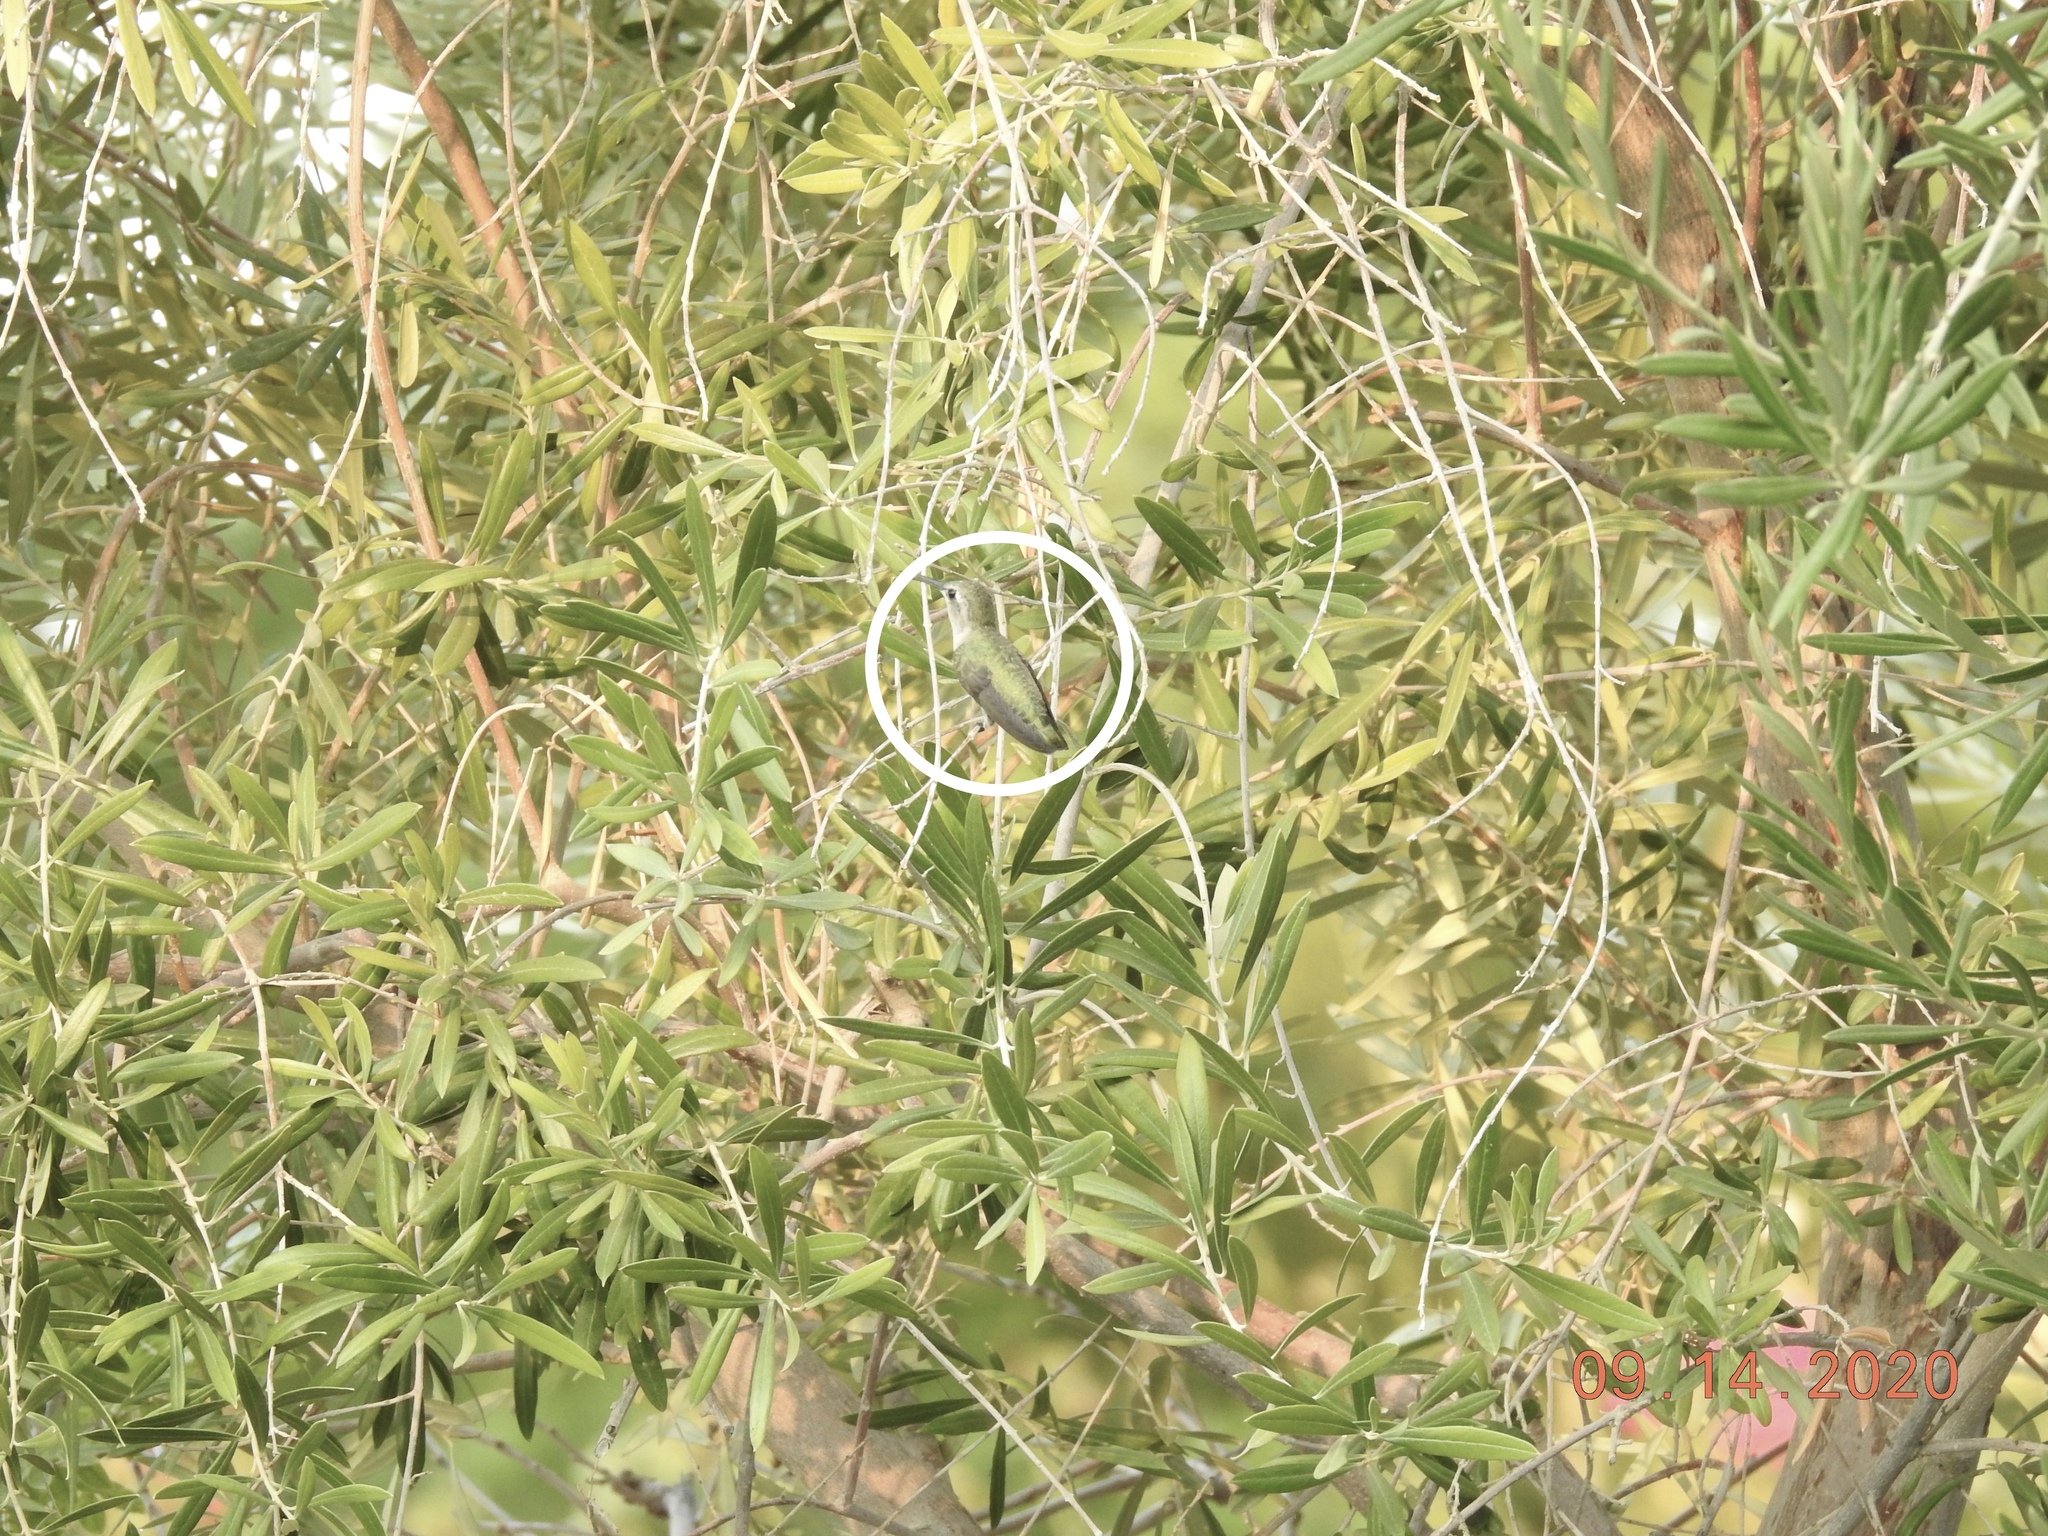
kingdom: Animalia
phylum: Chordata
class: Aves
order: Apodiformes
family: Trochilidae
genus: Calypte
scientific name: Calypte costae
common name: Costa's hummingbird
